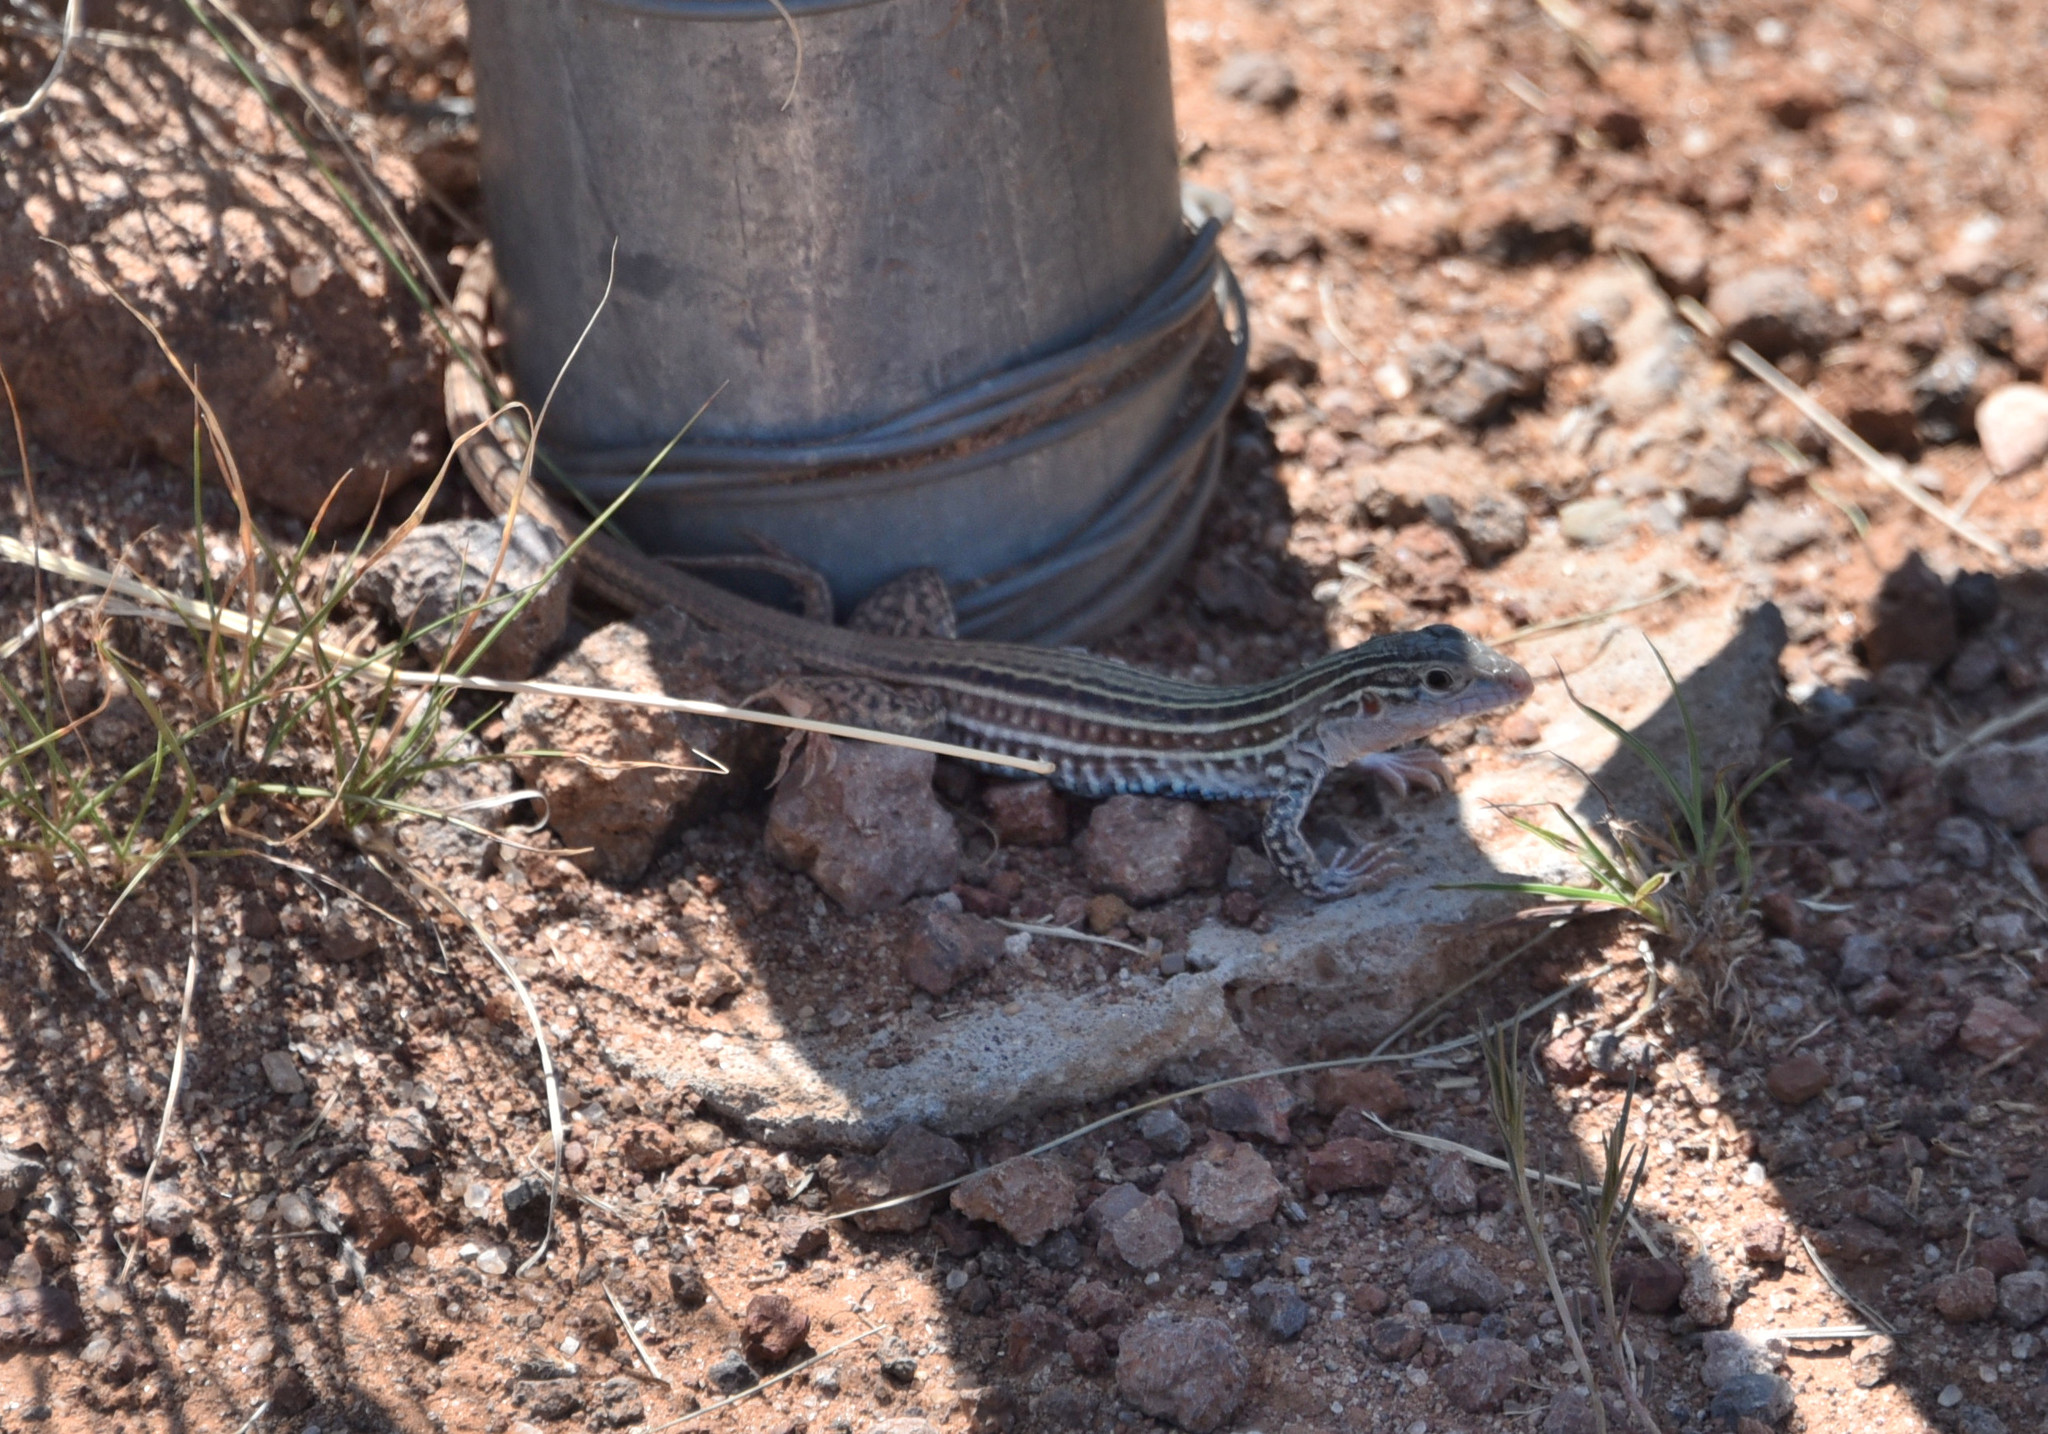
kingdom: Animalia
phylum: Chordata
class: Squamata
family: Teiidae
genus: Aspidoscelis
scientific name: Aspidoscelis gularis
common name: Eastern spotted whiptail
